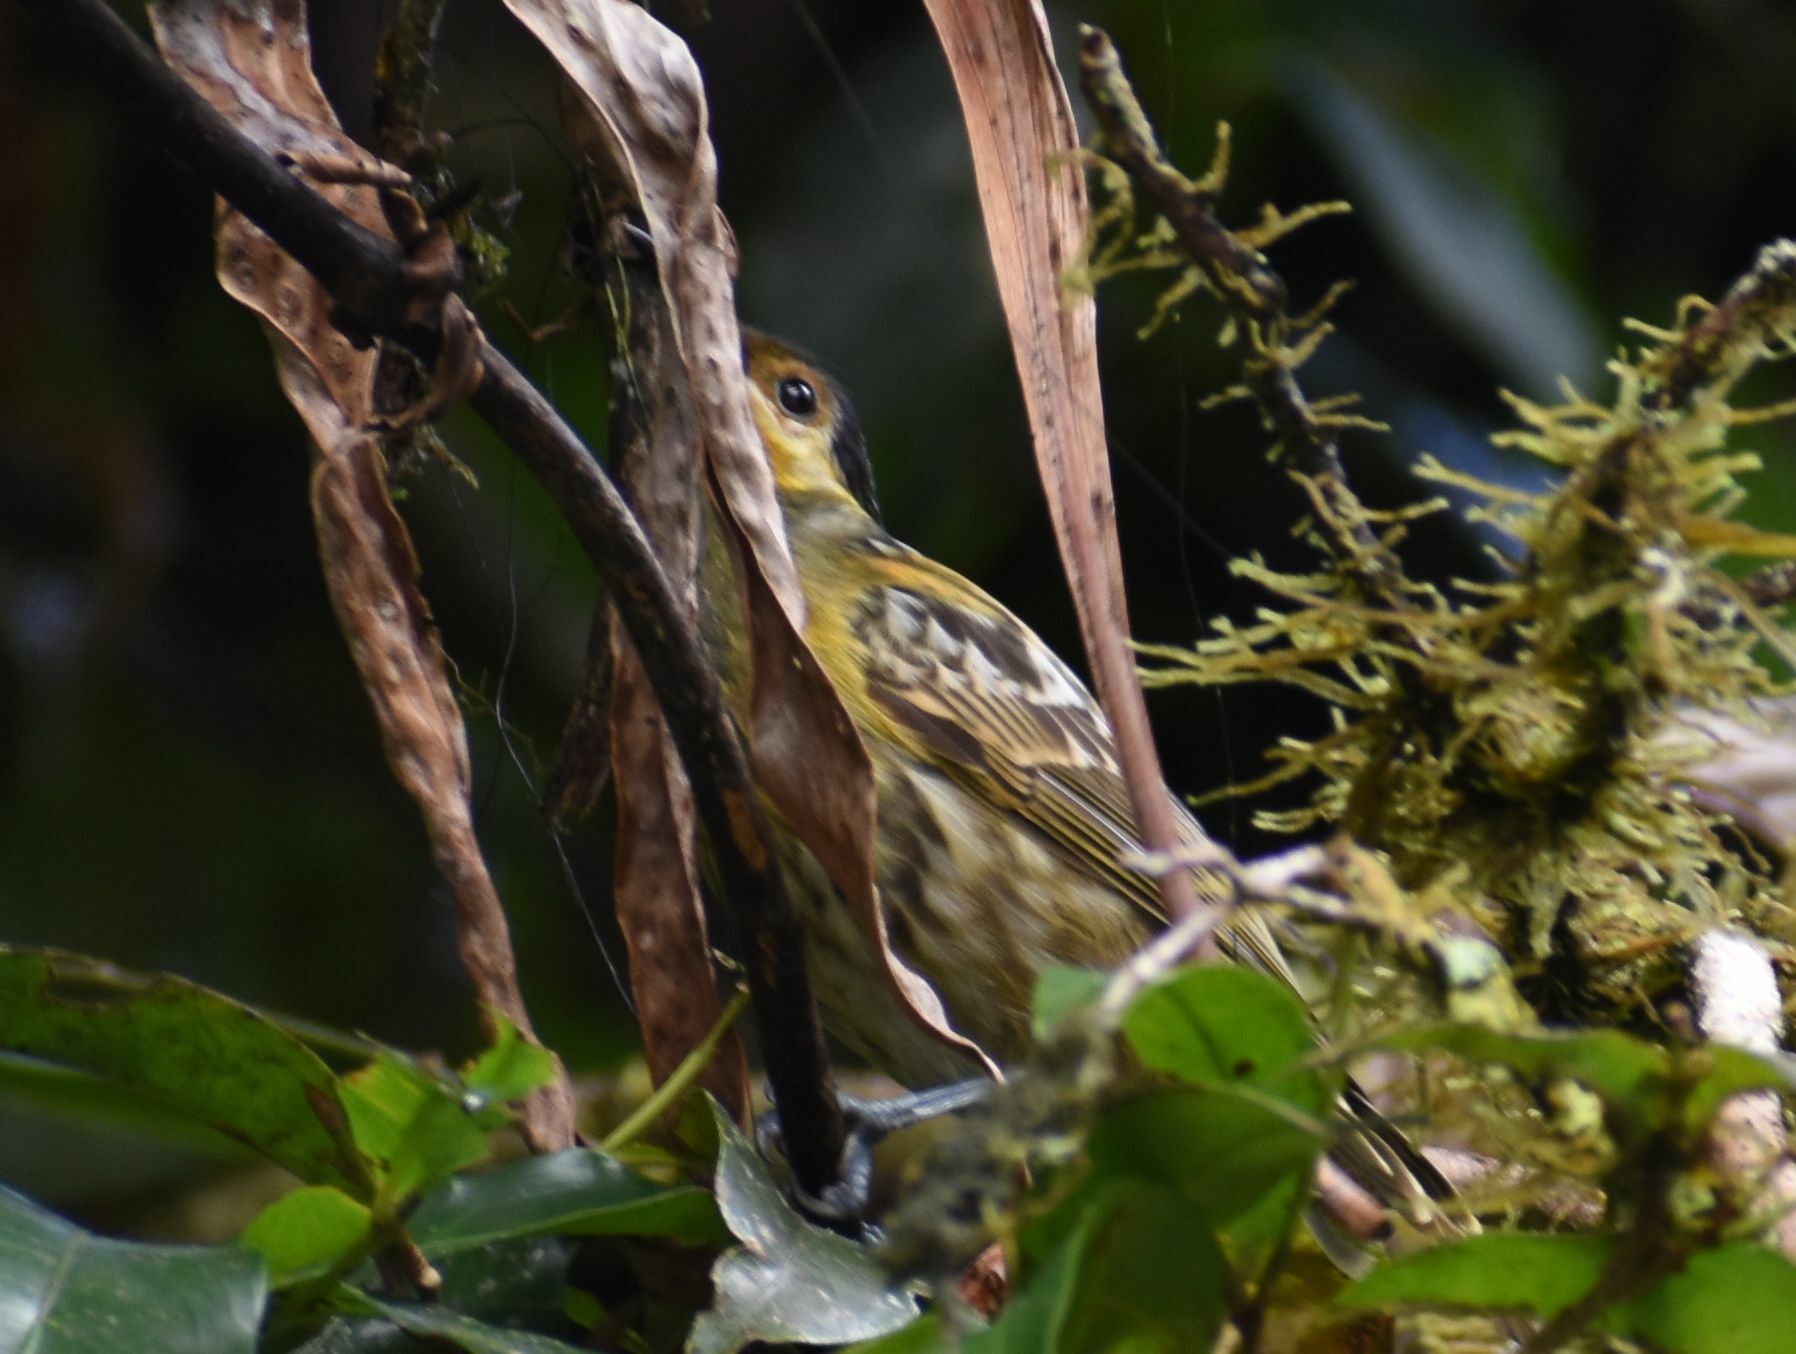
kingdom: Animalia
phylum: Chordata
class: Aves
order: Passeriformes
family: Climacteridae
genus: Cormobates
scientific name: Cormobates leucophaea
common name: White-throated treecreeper
